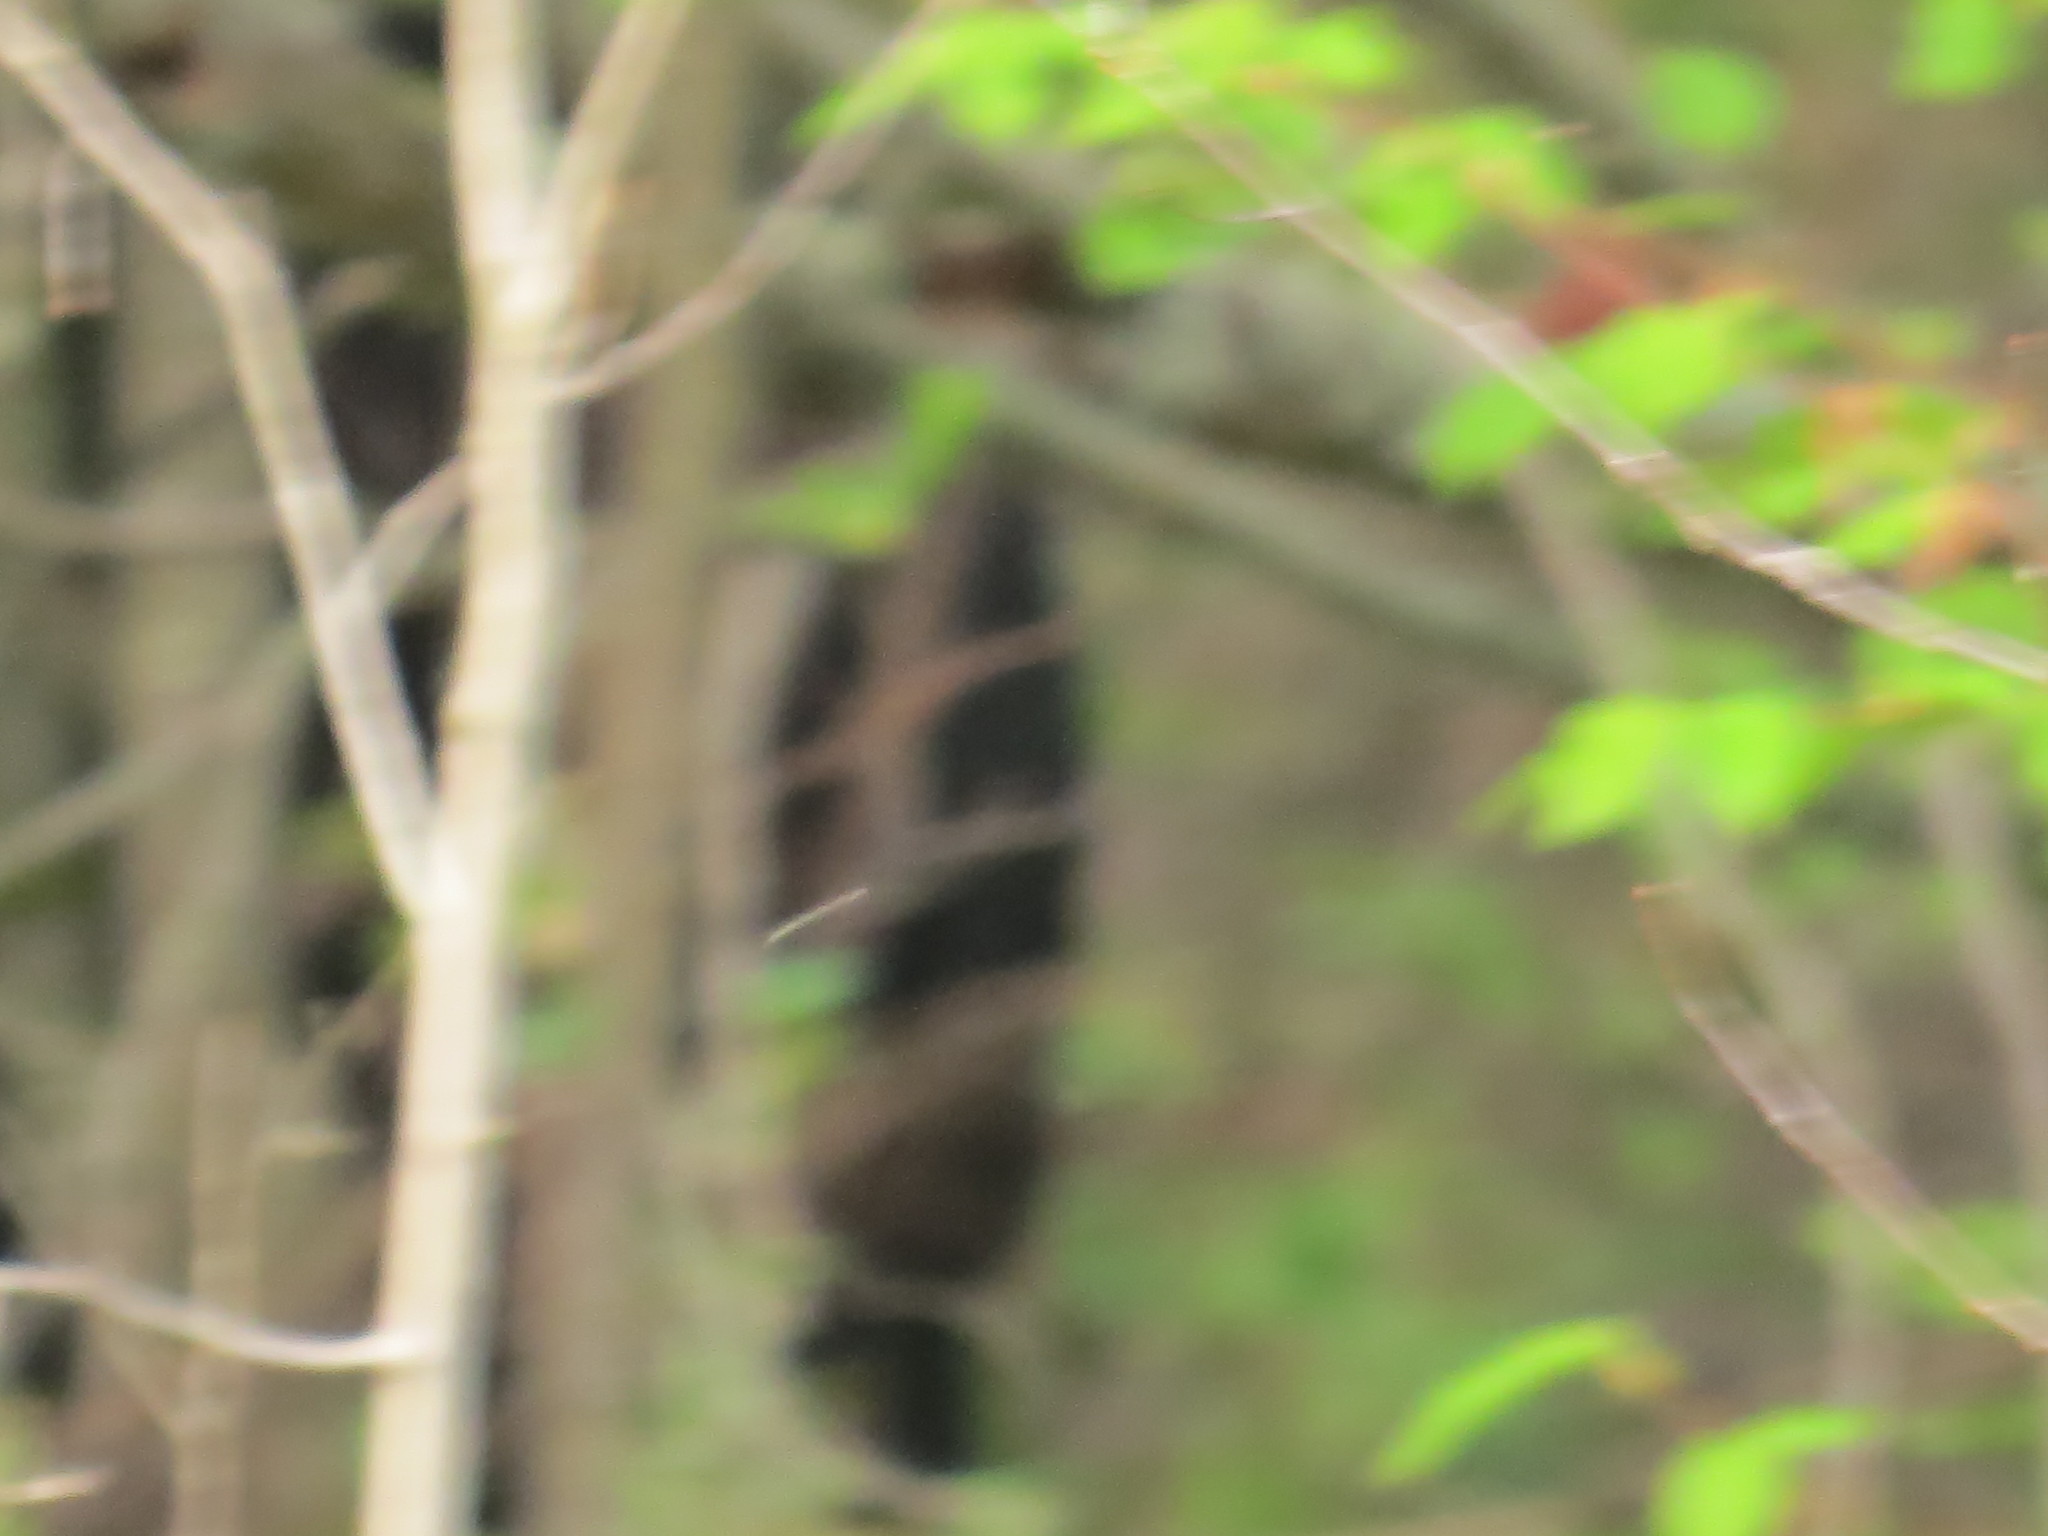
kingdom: Animalia
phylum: Chordata
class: Mammalia
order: Carnivora
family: Ursidae
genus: Ursus
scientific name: Ursus americanus
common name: American black bear
